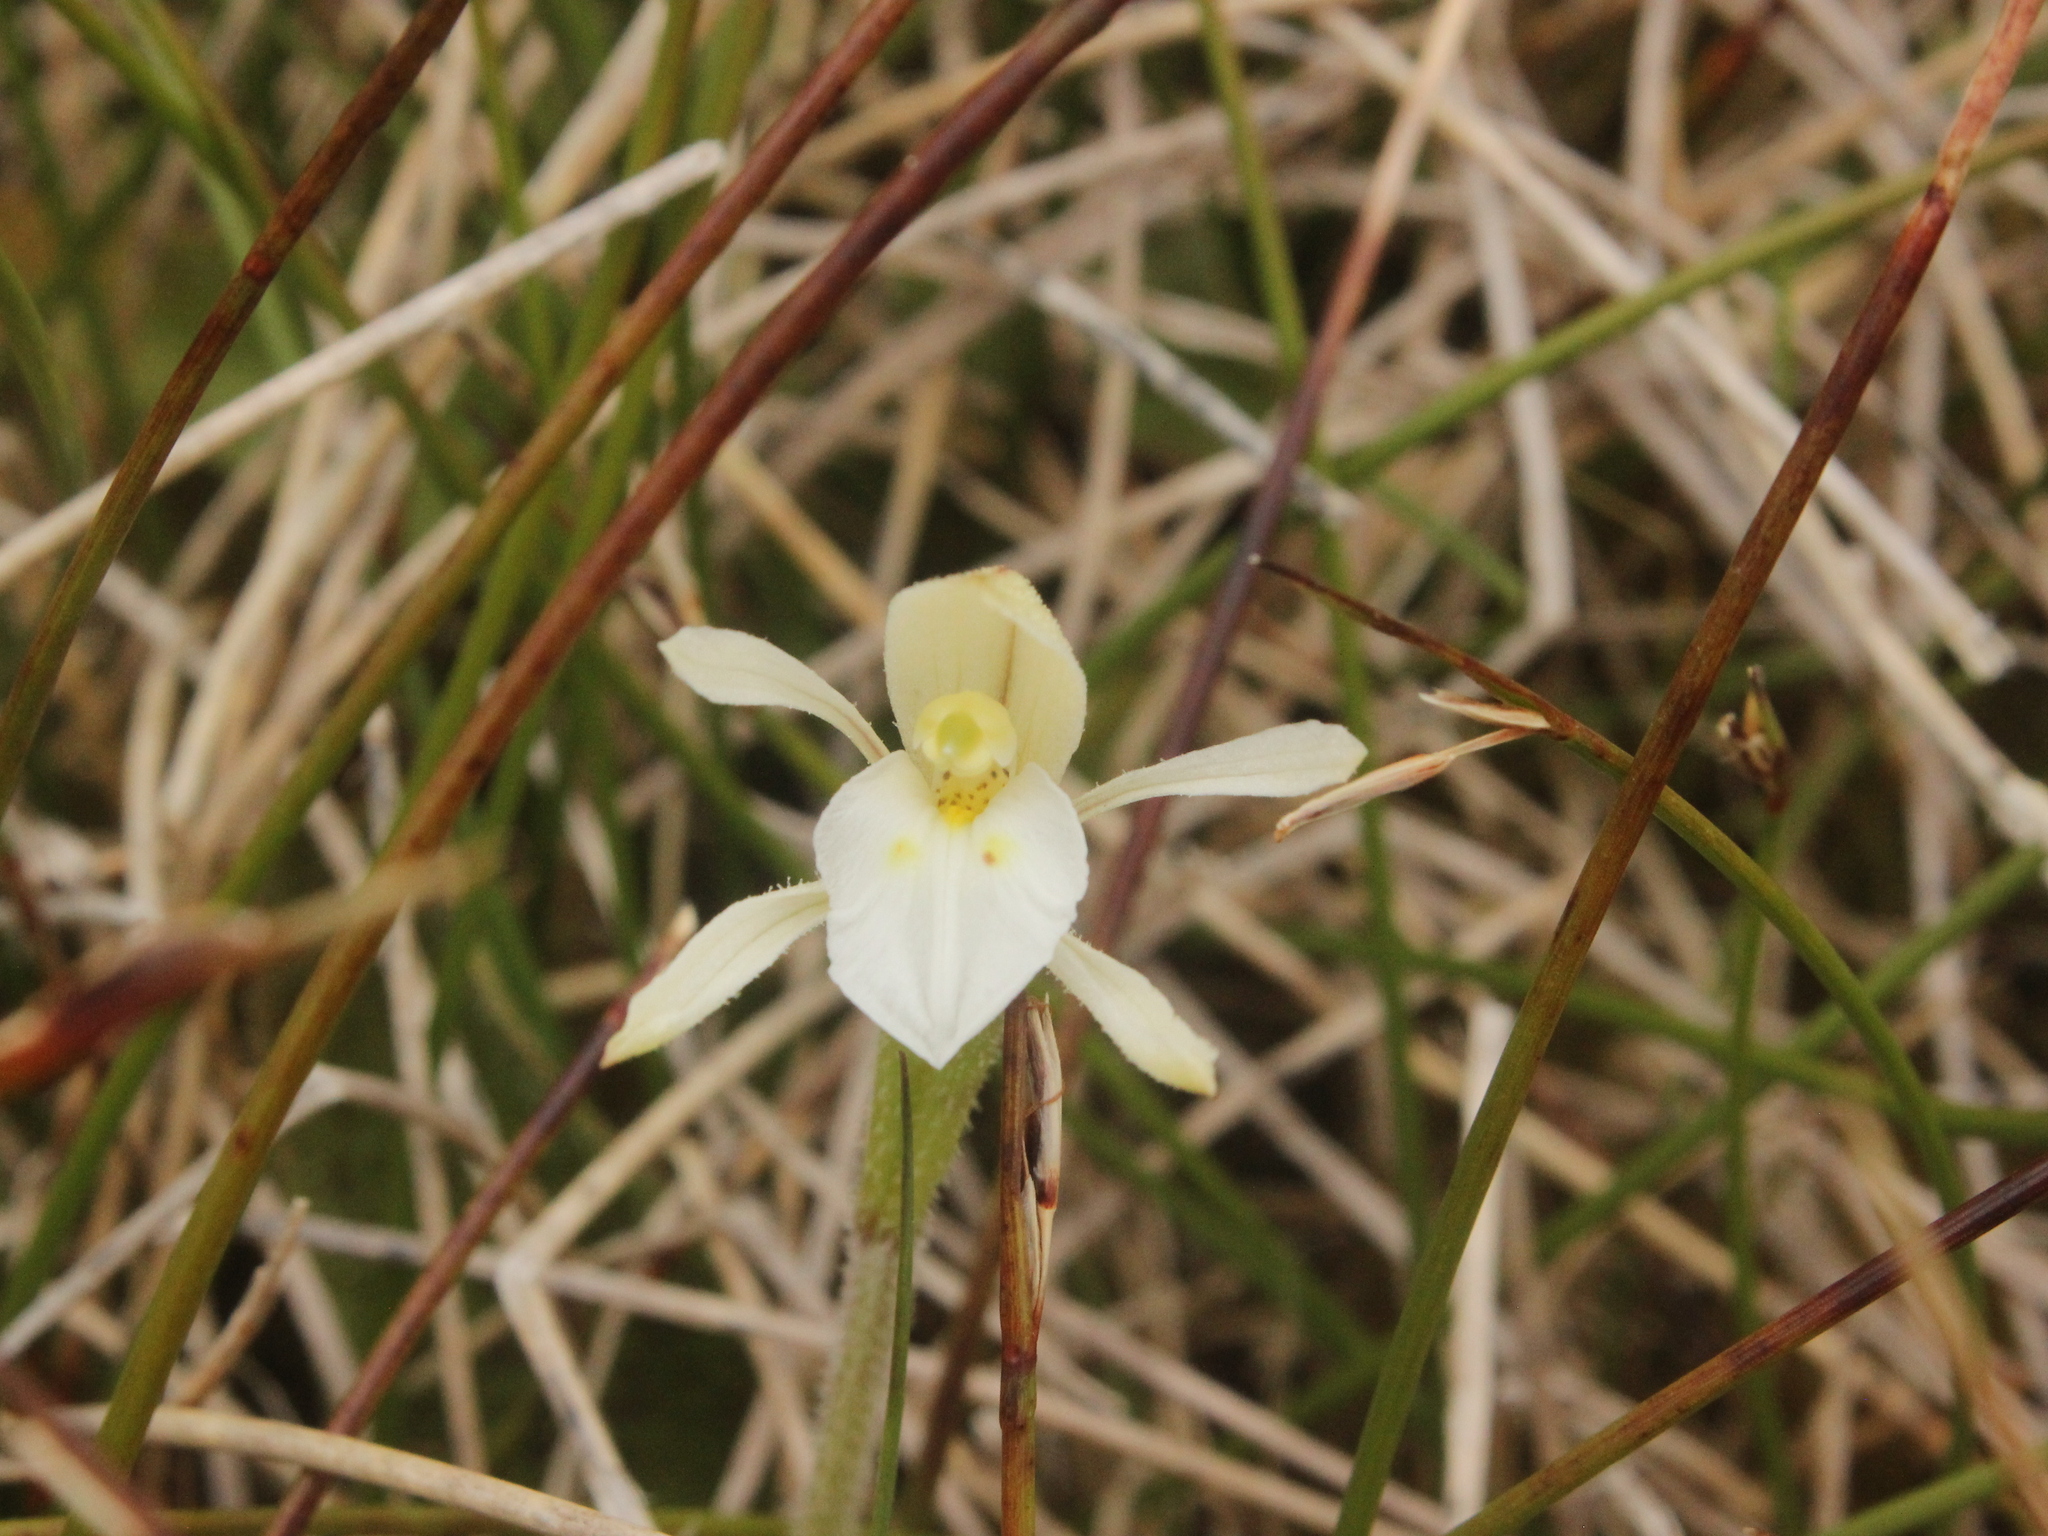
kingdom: Plantae
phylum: Tracheophyta
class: Liliopsida
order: Asparagales
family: Orchidaceae
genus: Aporostylis
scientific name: Aporostylis bifolia
